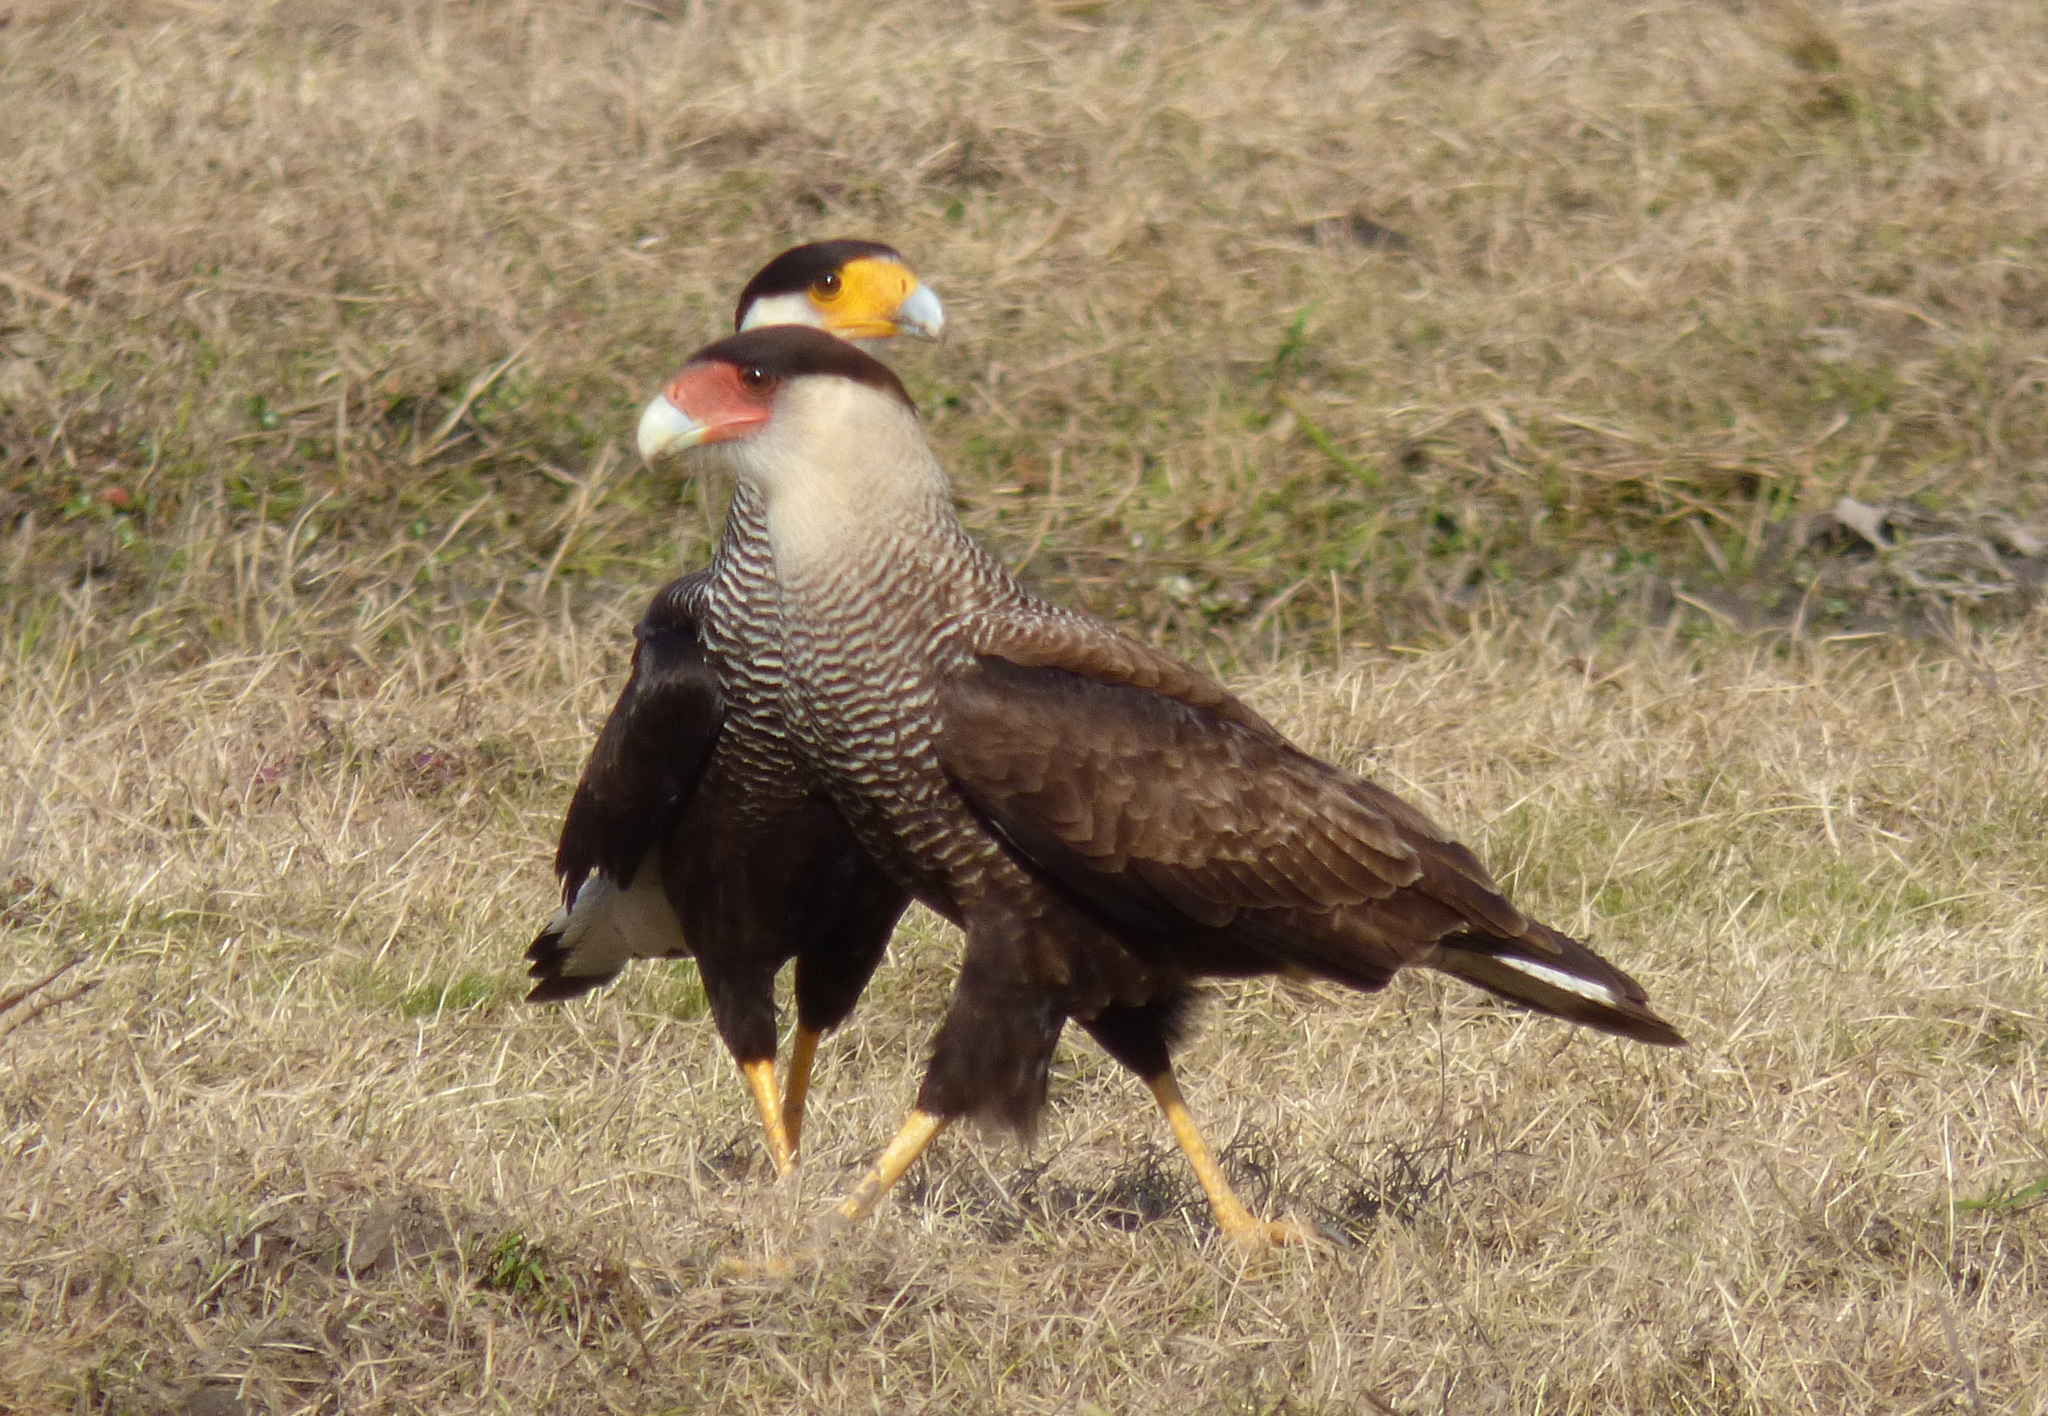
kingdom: Animalia
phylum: Chordata
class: Aves
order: Falconiformes
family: Falconidae
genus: Caracara
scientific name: Caracara plancus
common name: Southern caracara
